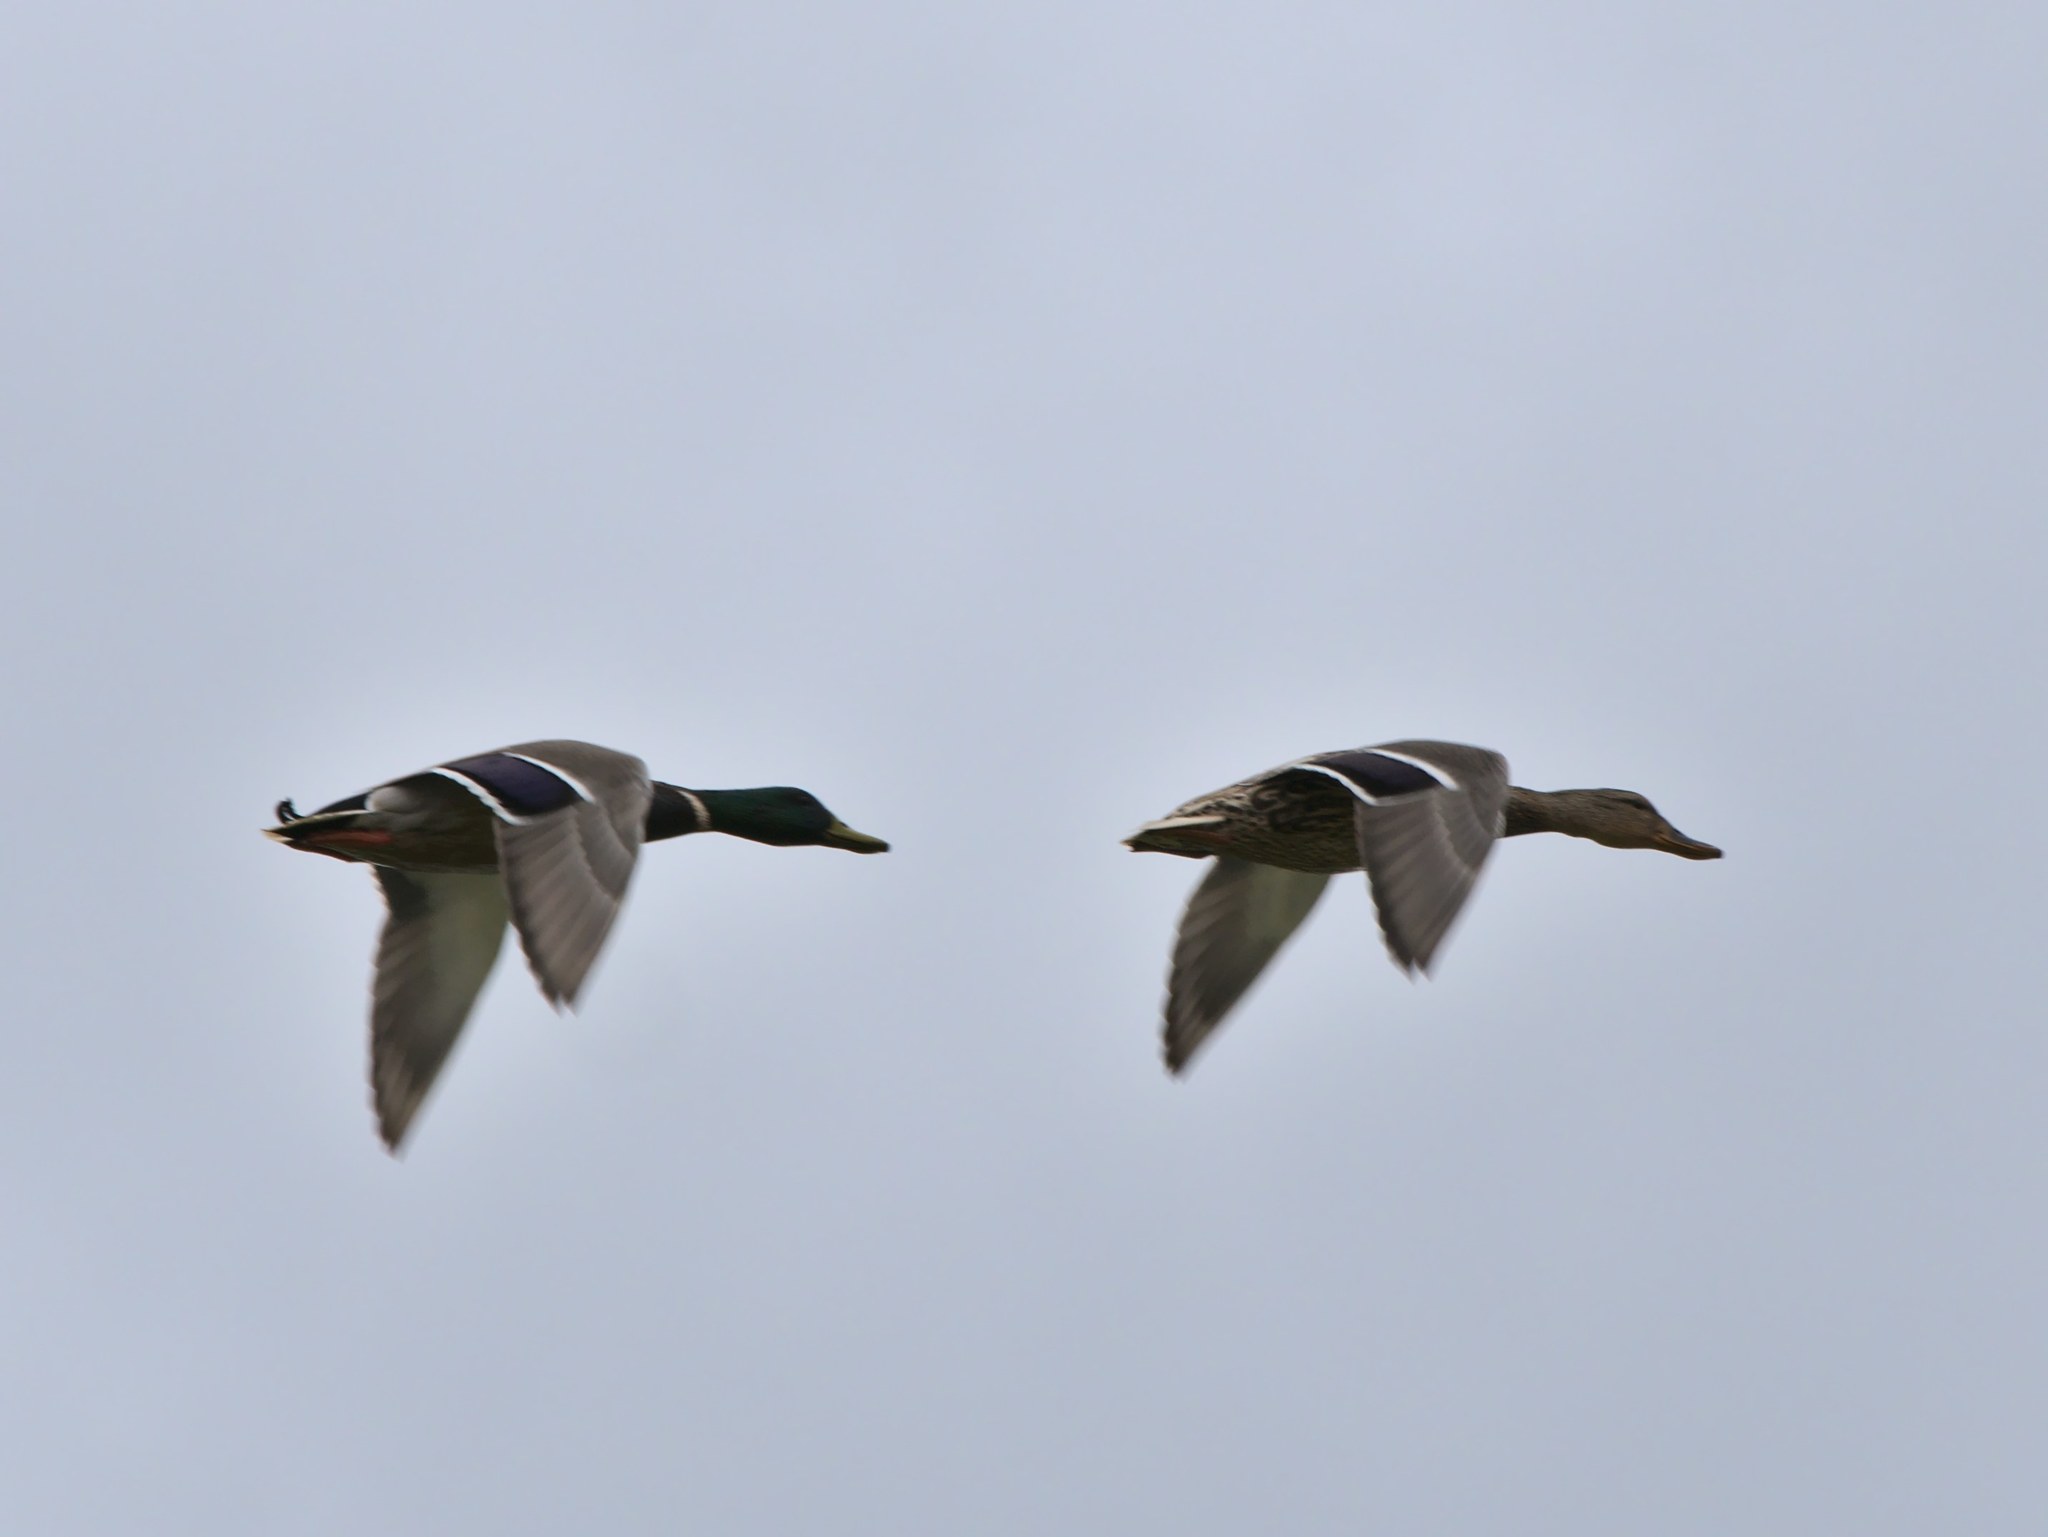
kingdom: Animalia
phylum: Chordata
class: Aves
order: Anseriformes
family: Anatidae
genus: Anas
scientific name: Anas platyrhynchos
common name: Mallard
